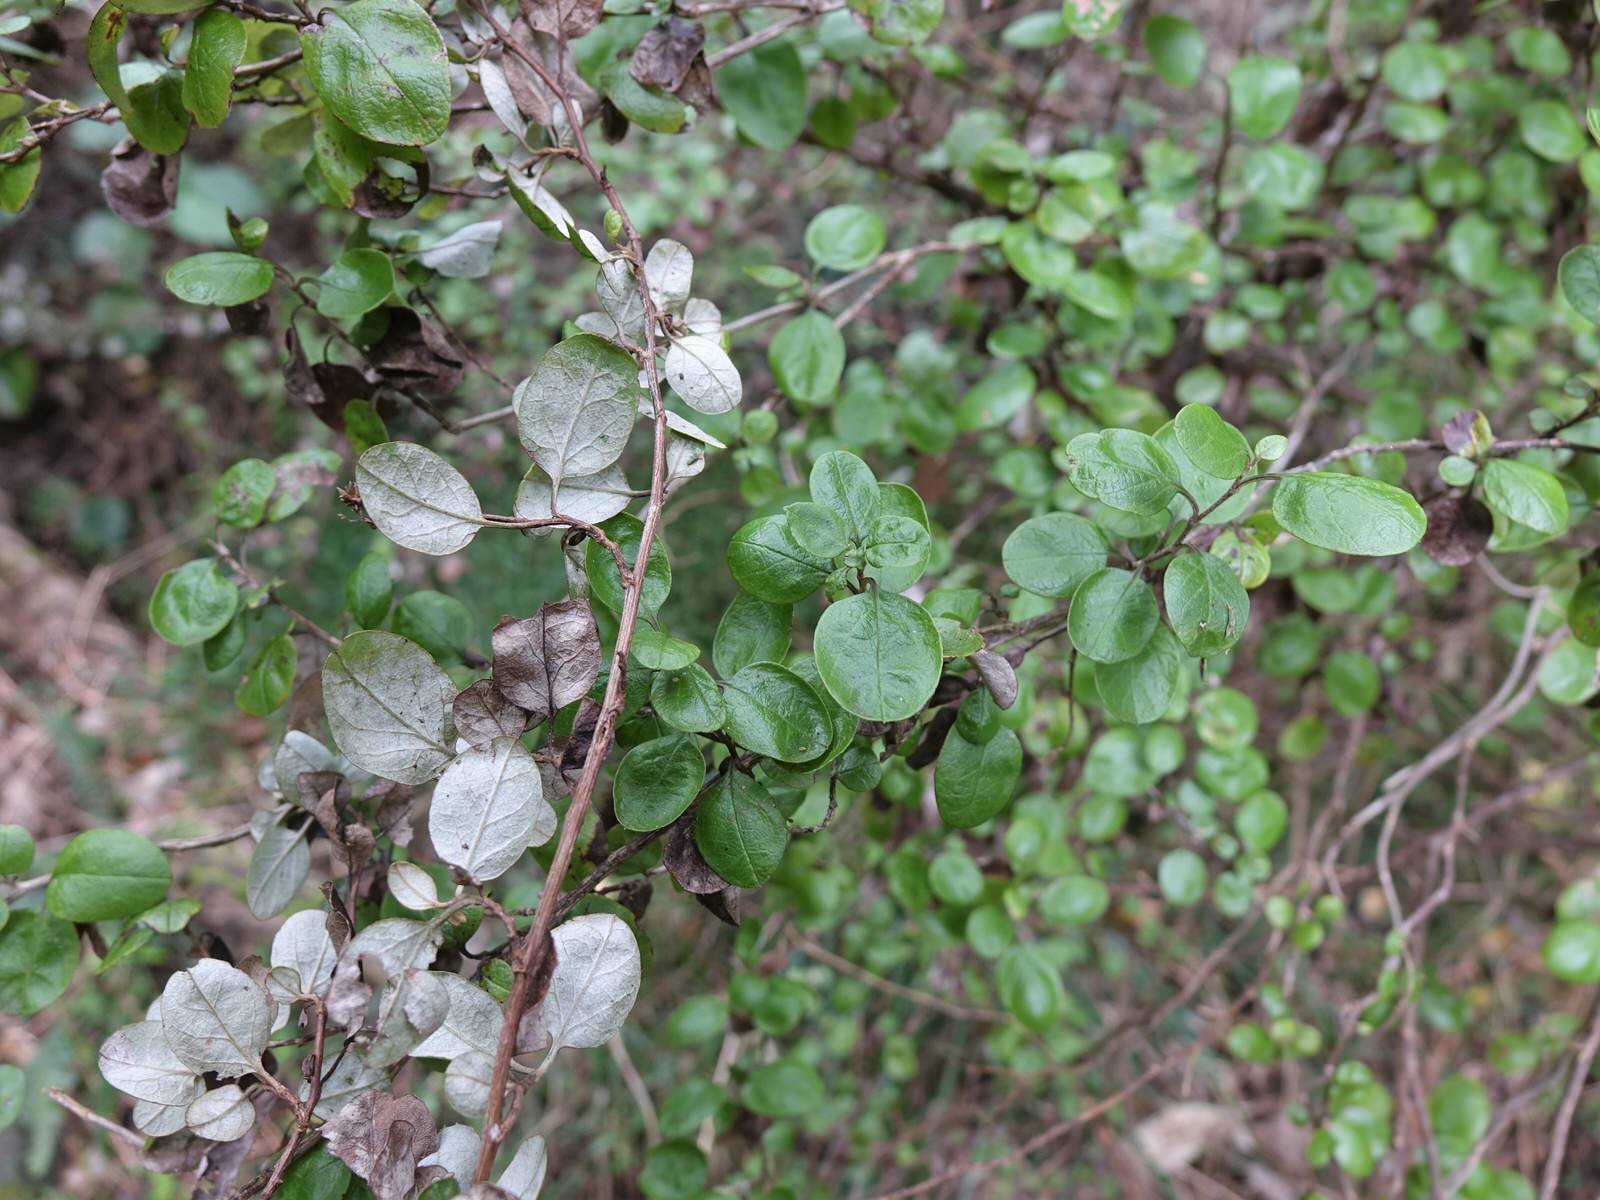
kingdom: Plantae
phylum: Tracheophyta
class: Magnoliopsida
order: Asterales
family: Asteraceae
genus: Ozothamnus
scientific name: Ozothamnus glomeratus
